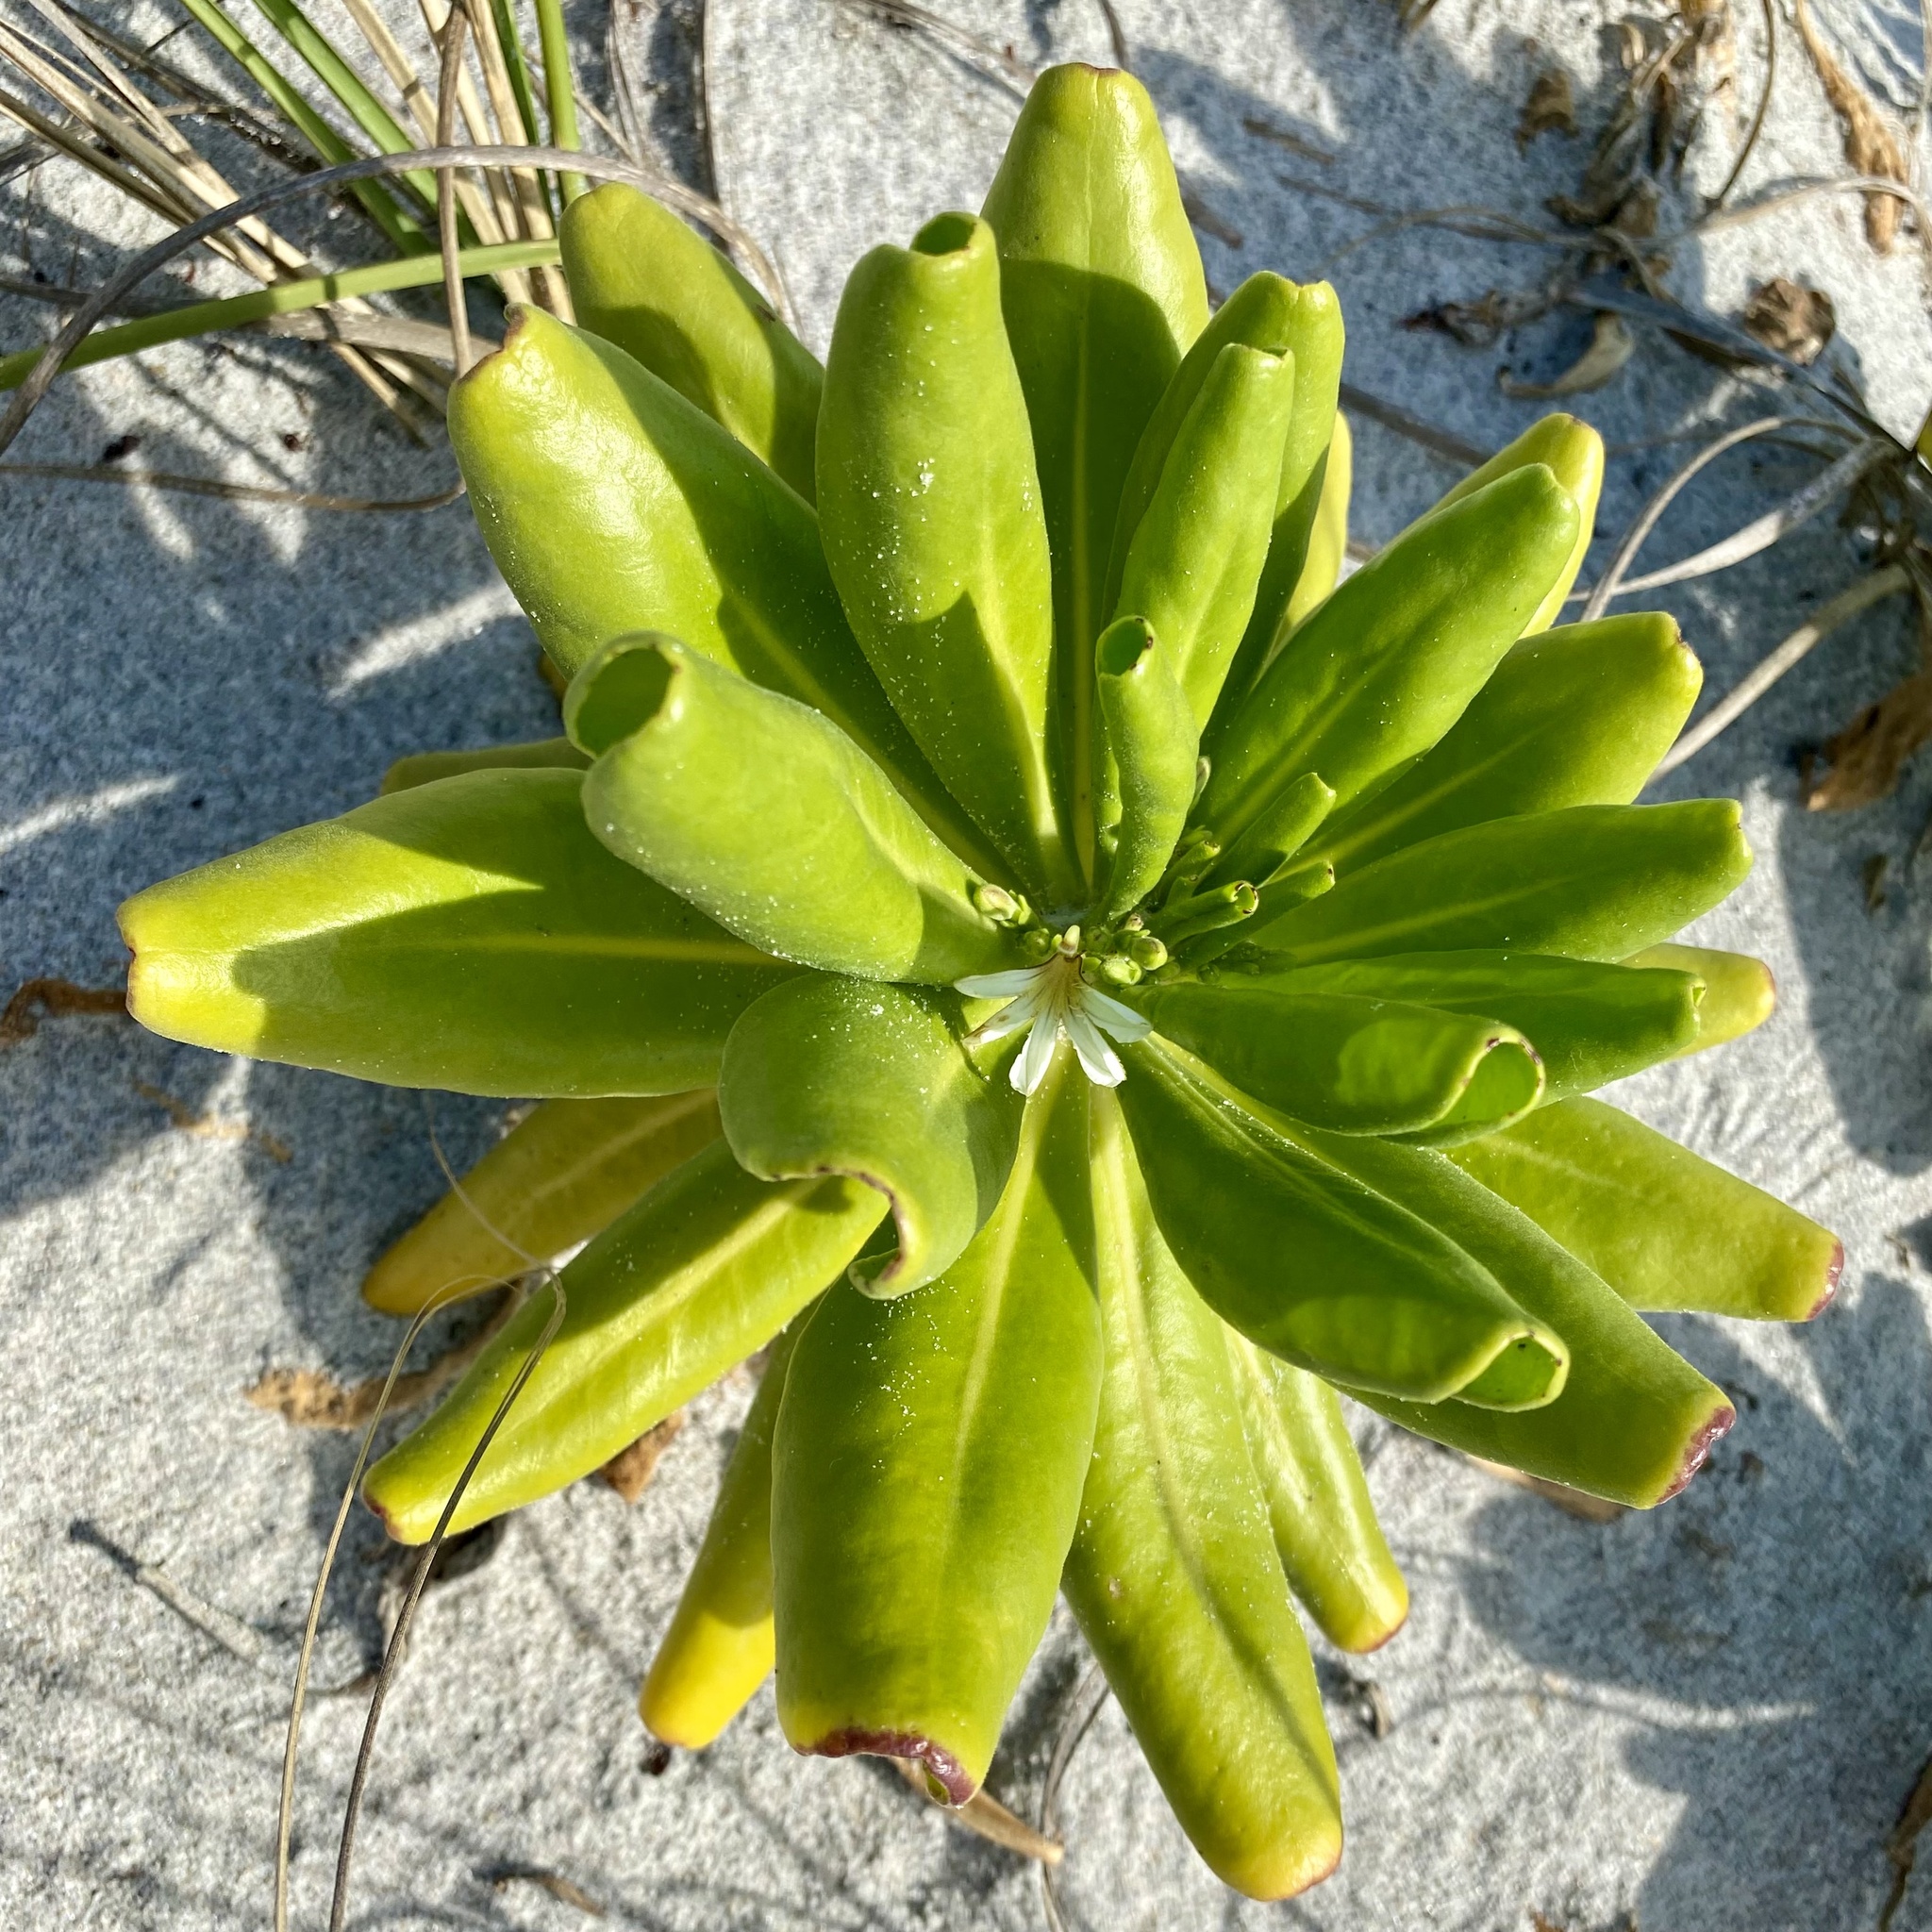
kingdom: Plantae
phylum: Tracheophyta
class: Magnoliopsida
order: Asterales
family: Goodeniaceae
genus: Scaevola
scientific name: Scaevola taccada
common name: Sea lettucetree
